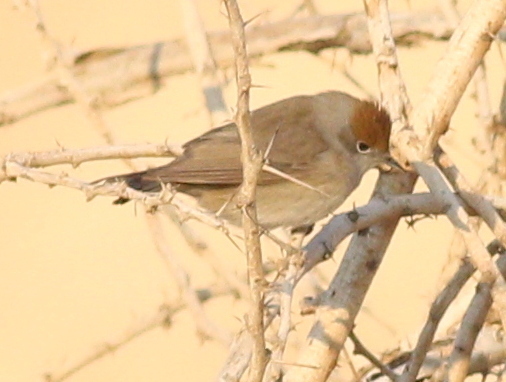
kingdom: Animalia
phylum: Chordata
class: Aves
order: Passeriformes
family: Sylviidae
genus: Sylvia
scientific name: Sylvia atricapilla
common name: Eurasian blackcap
